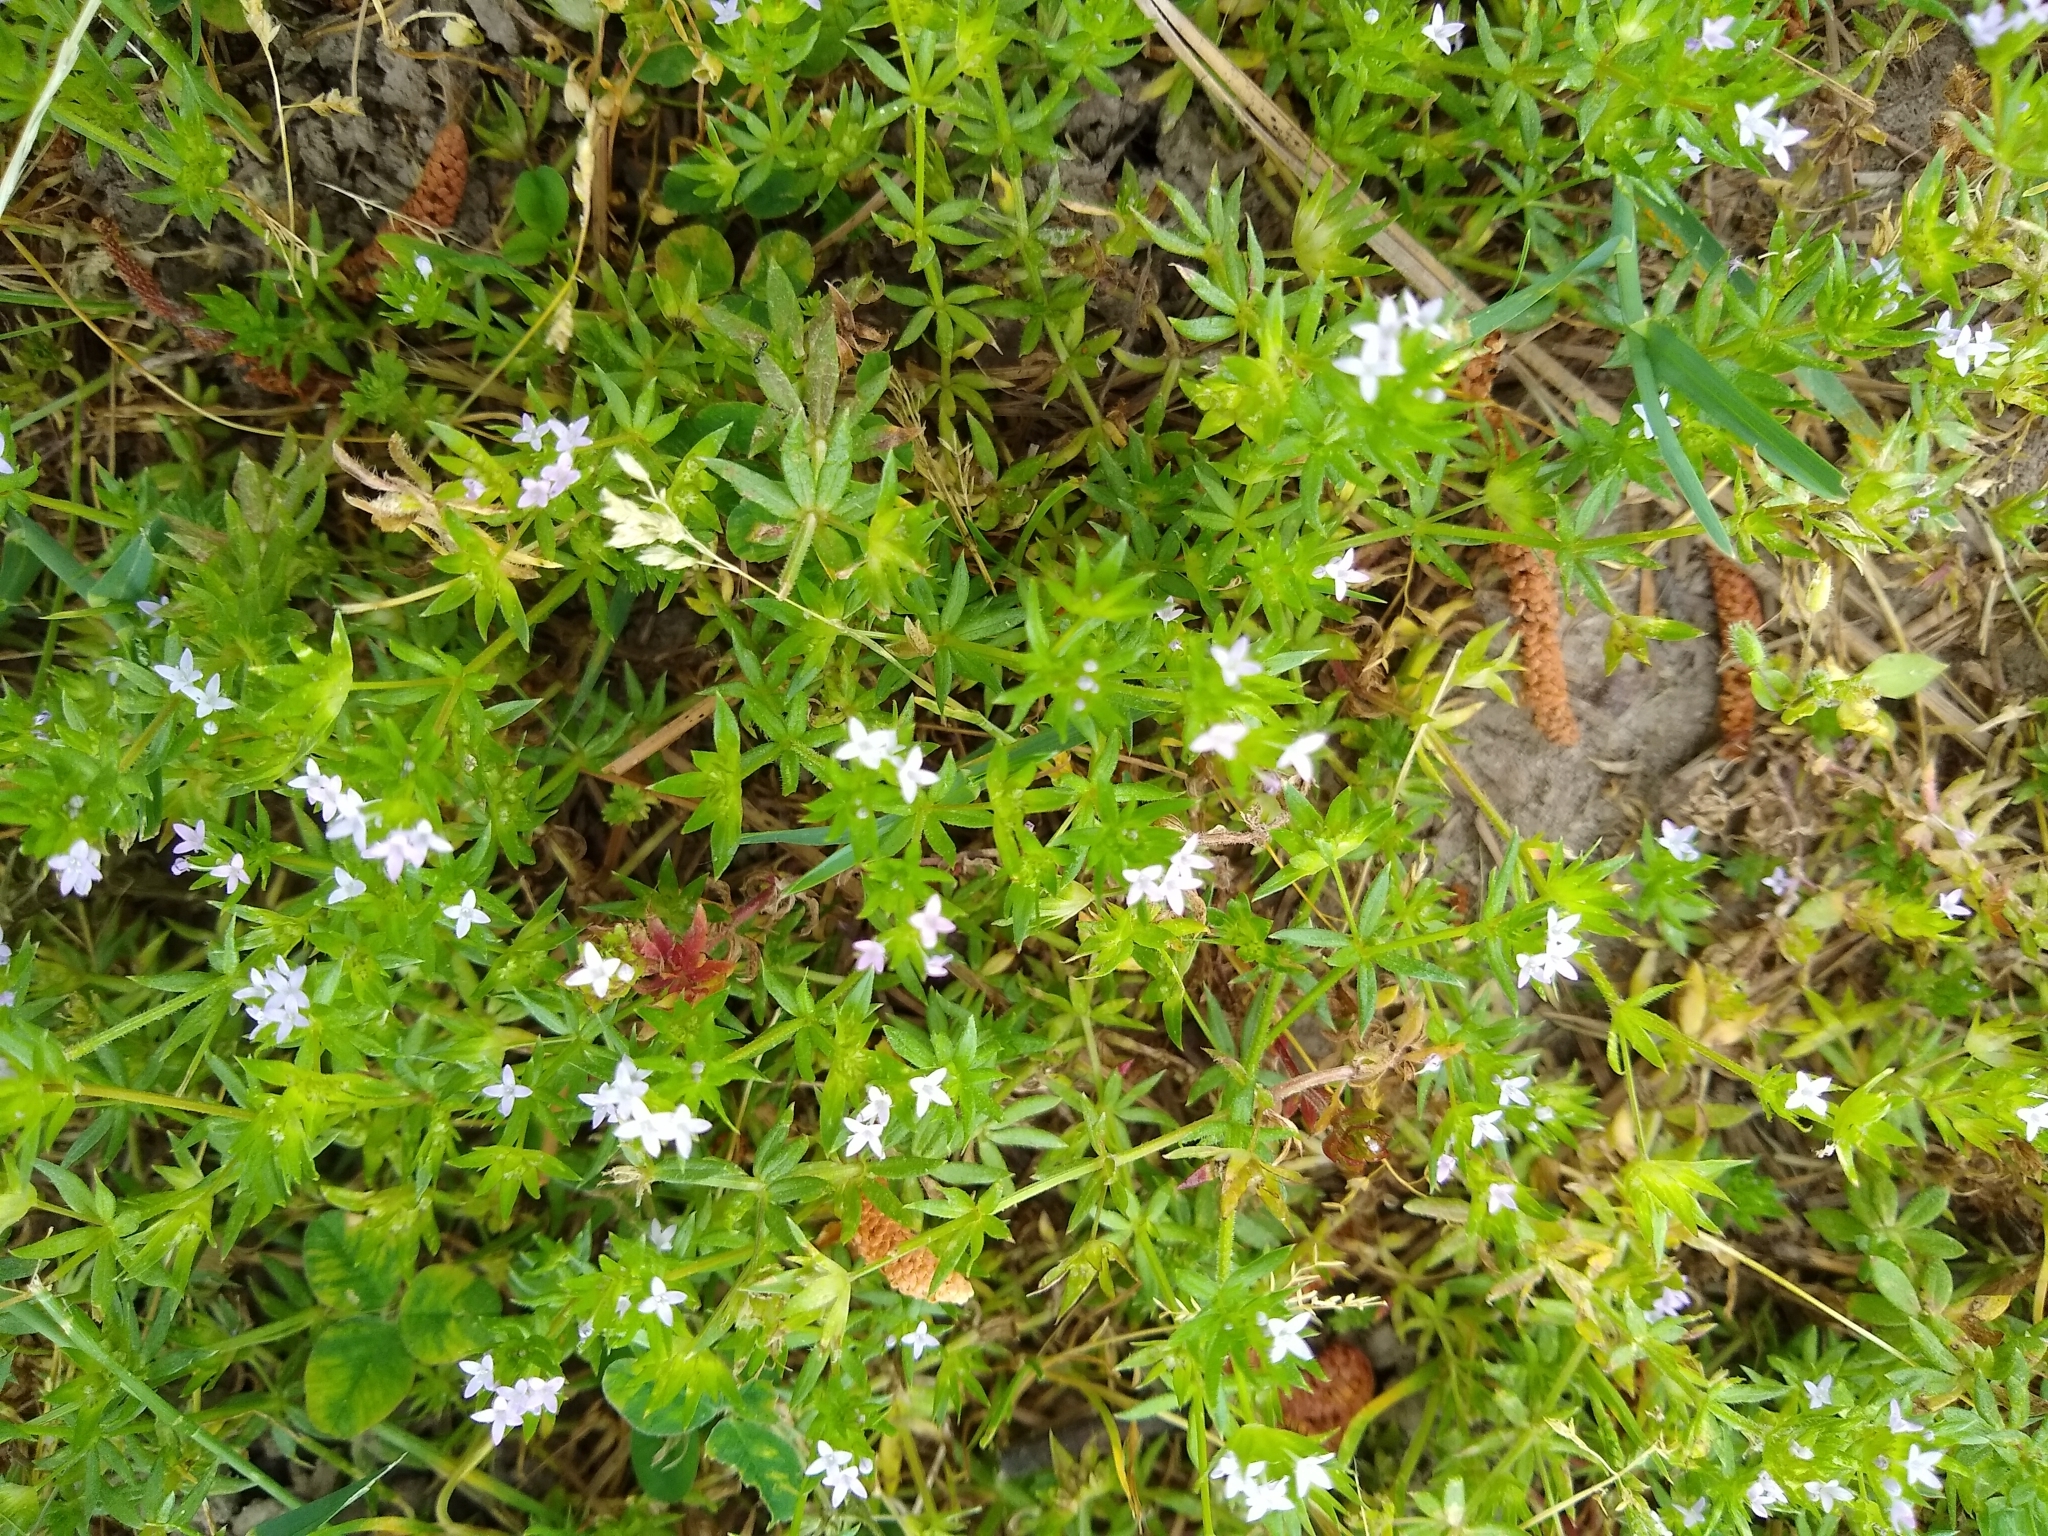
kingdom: Plantae
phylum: Tracheophyta
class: Magnoliopsida
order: Gentianales
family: Rubiaceae
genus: Sherardia
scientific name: Sherardia arvensis
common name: Field madder
